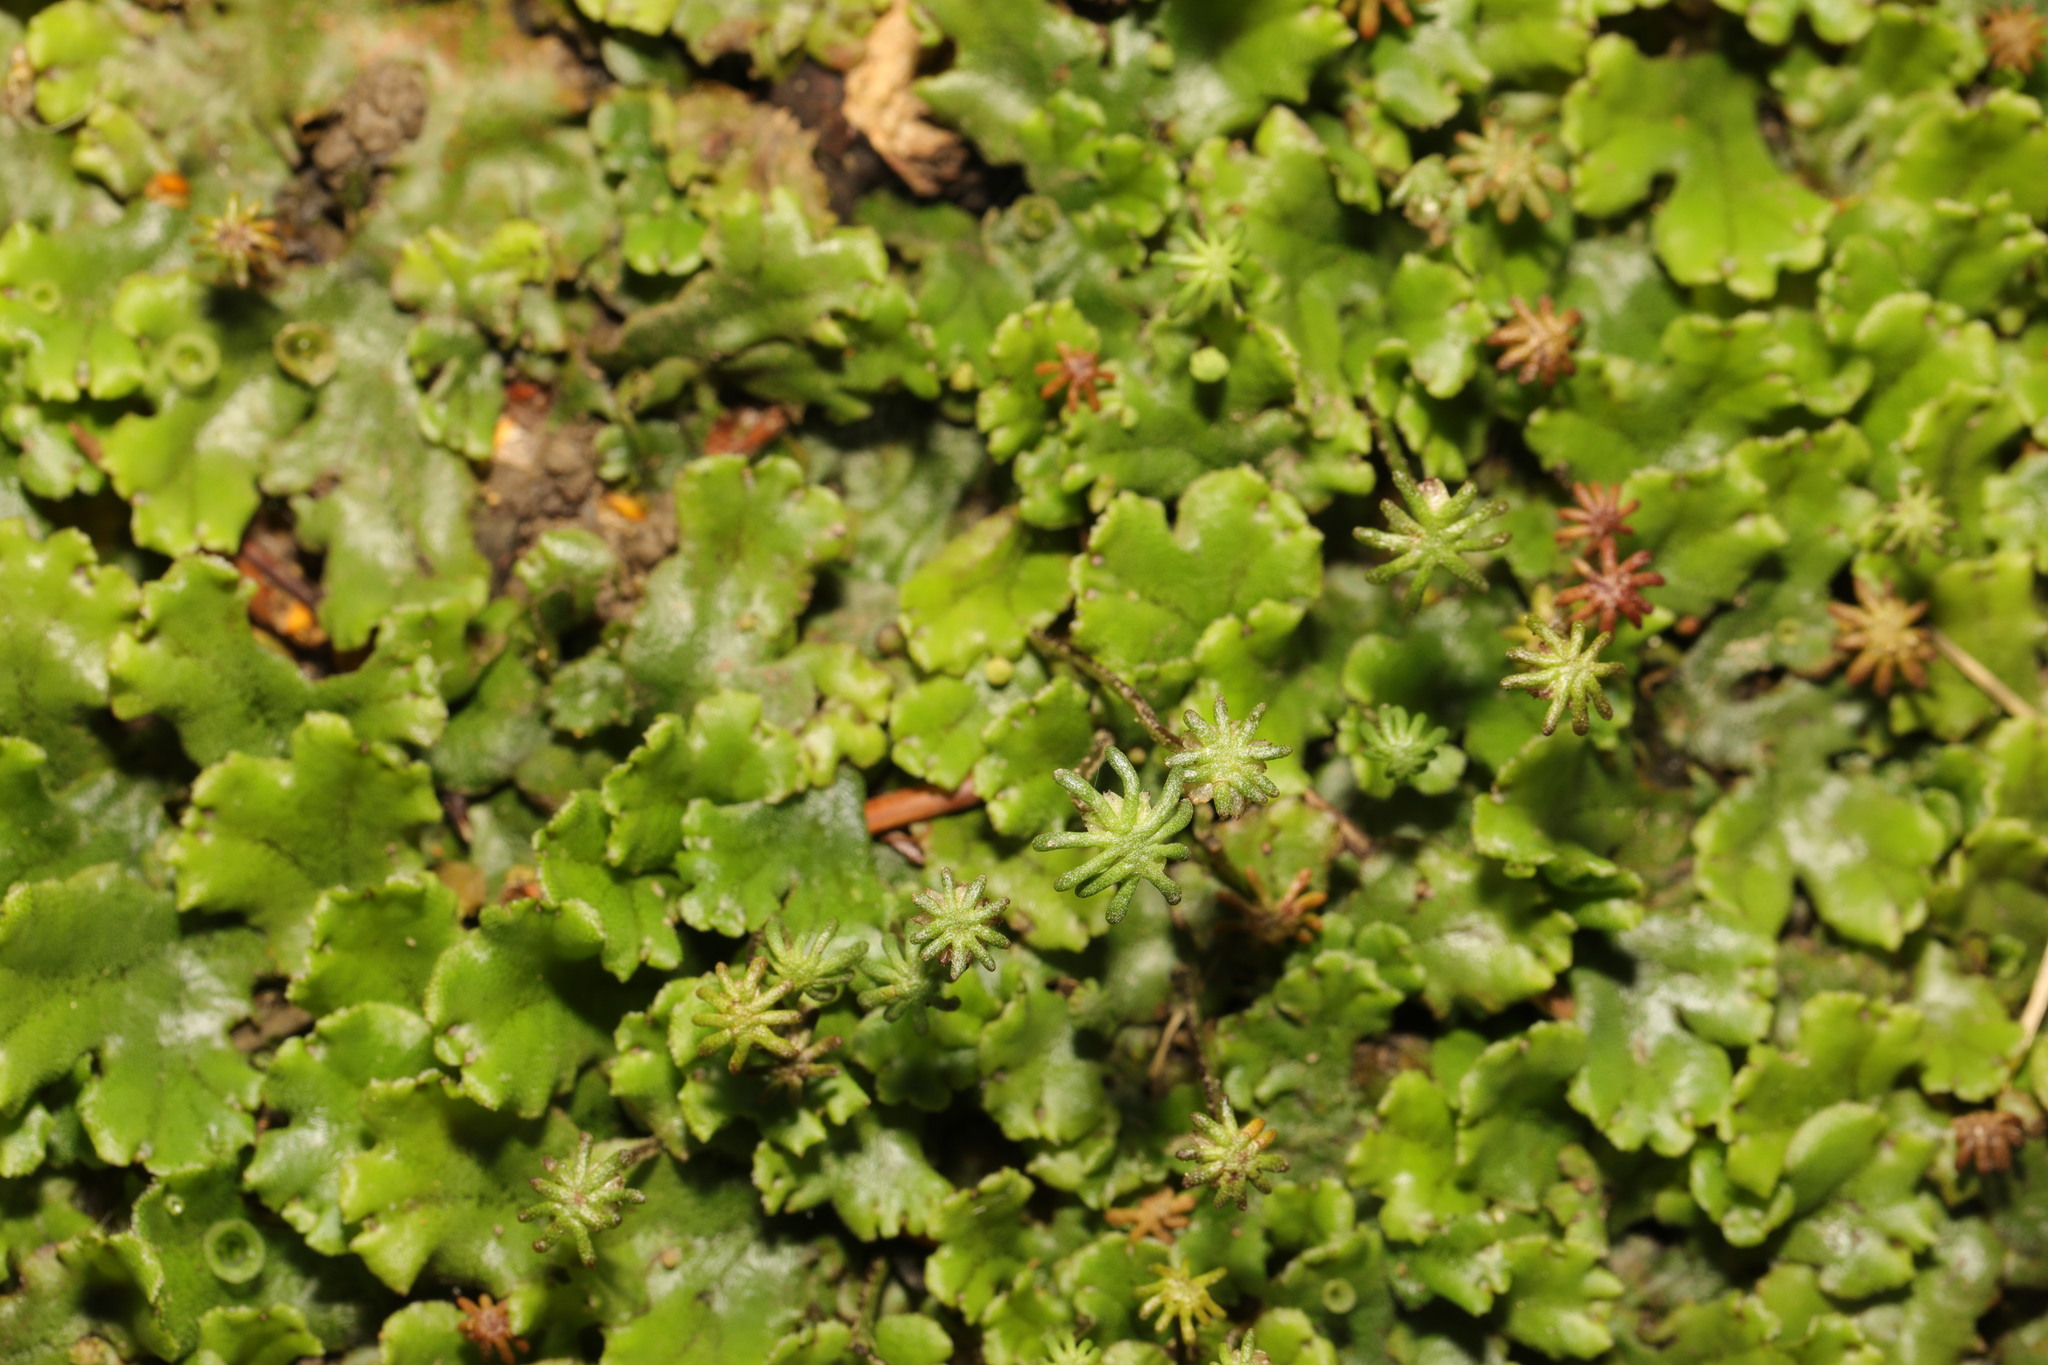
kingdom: Plantae
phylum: Marchantiophyta
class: Marchantiopsida
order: Marchantiales
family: Marchantiaceae
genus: Marchantia
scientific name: Marchantia polymorpha
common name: Common liverwort
